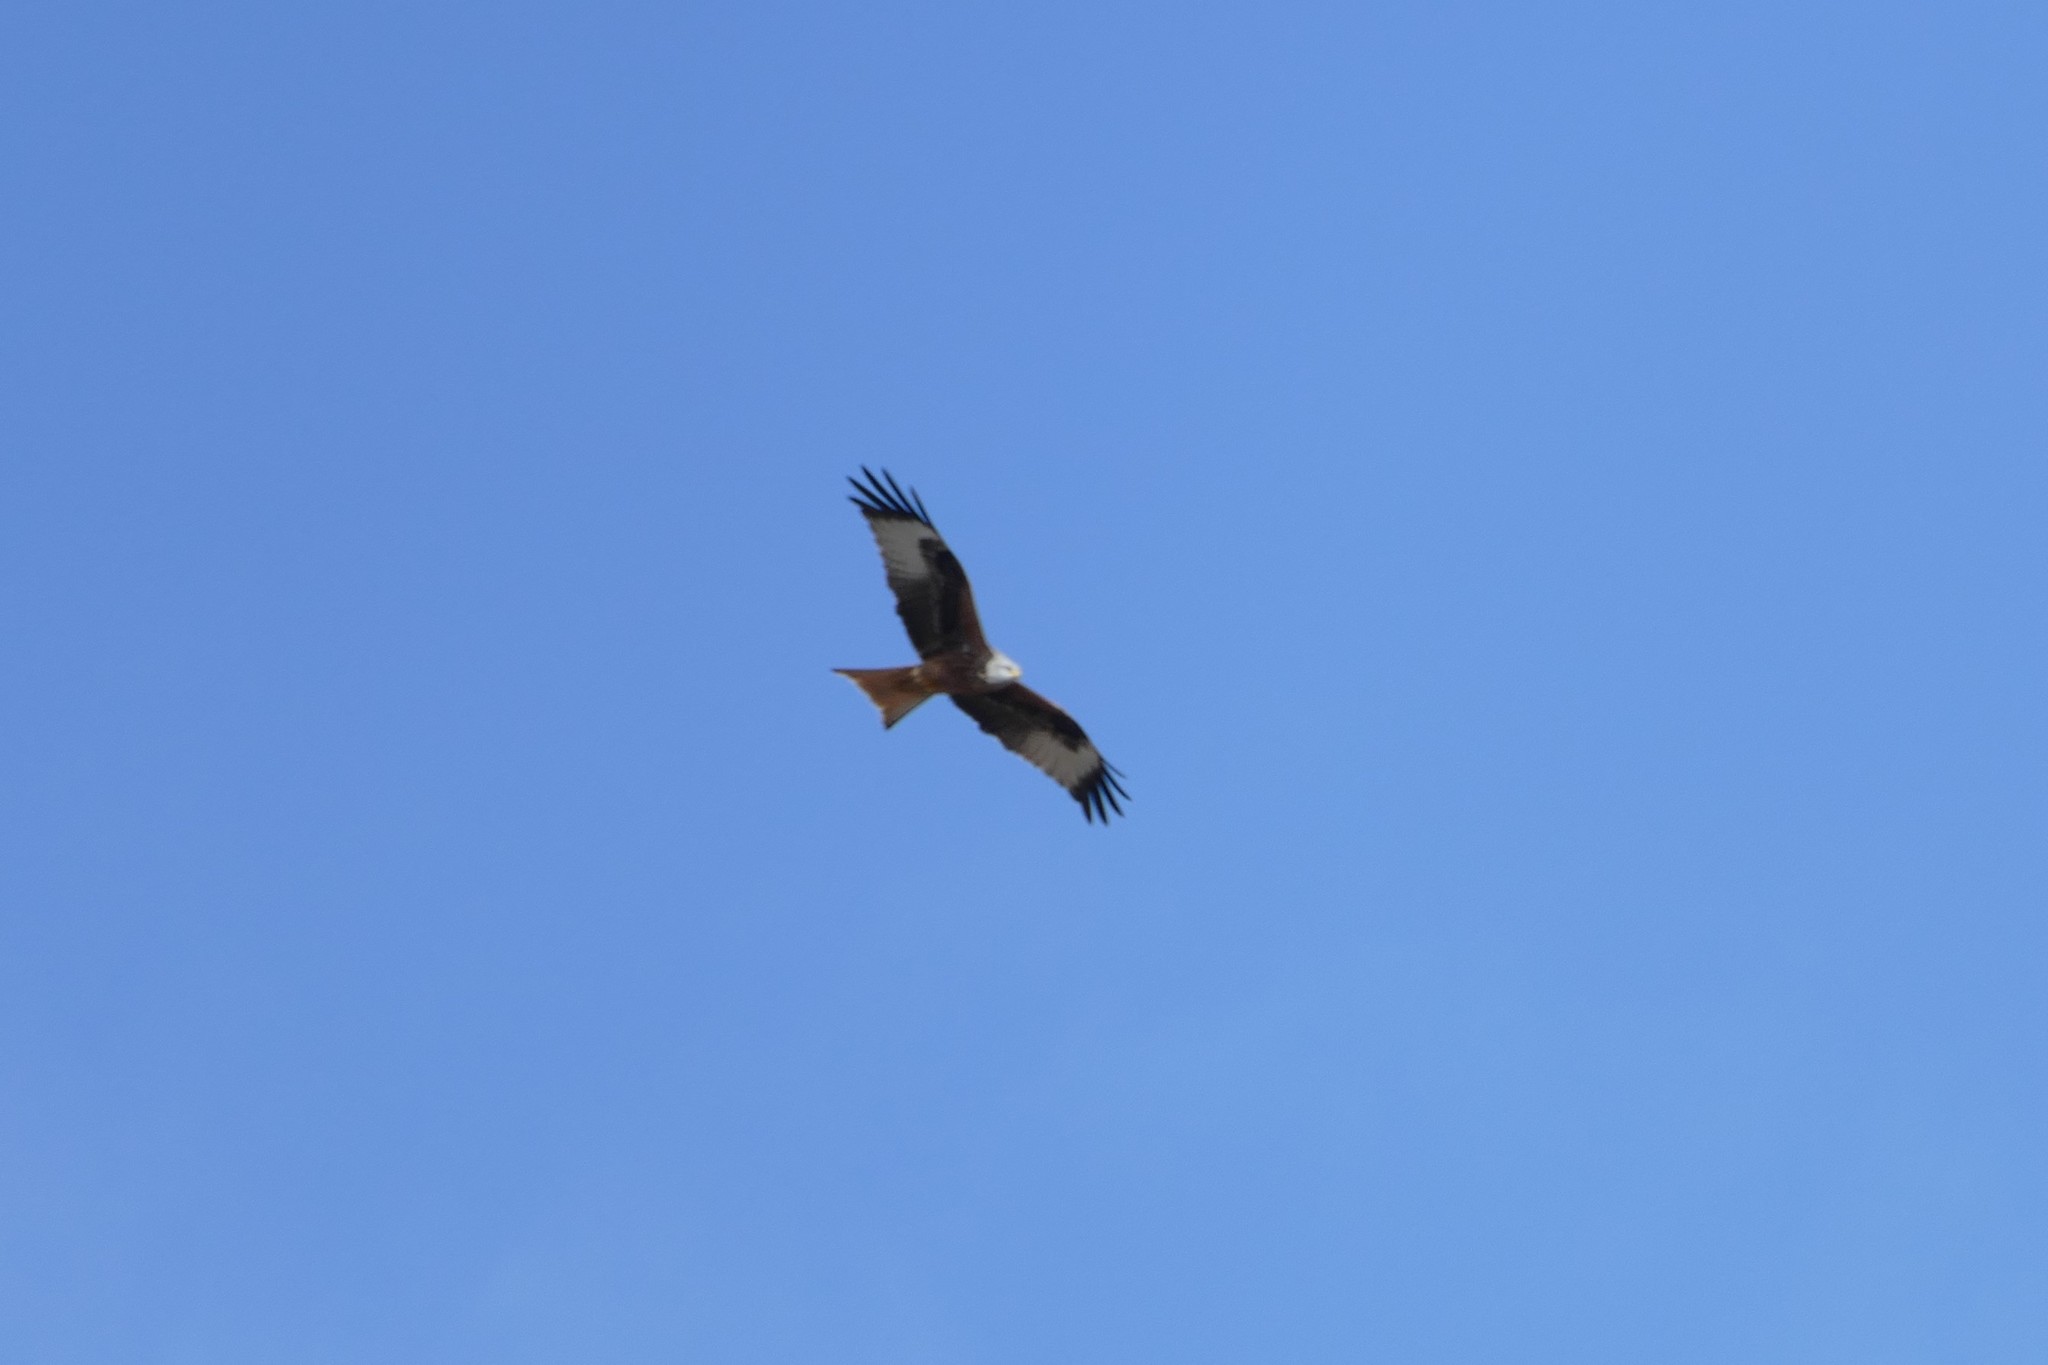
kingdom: Animalia
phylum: Chordata
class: Aves
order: Accipitriformes
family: Accipitridae
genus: Milvus
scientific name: Milvus milvus
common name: Red kite
